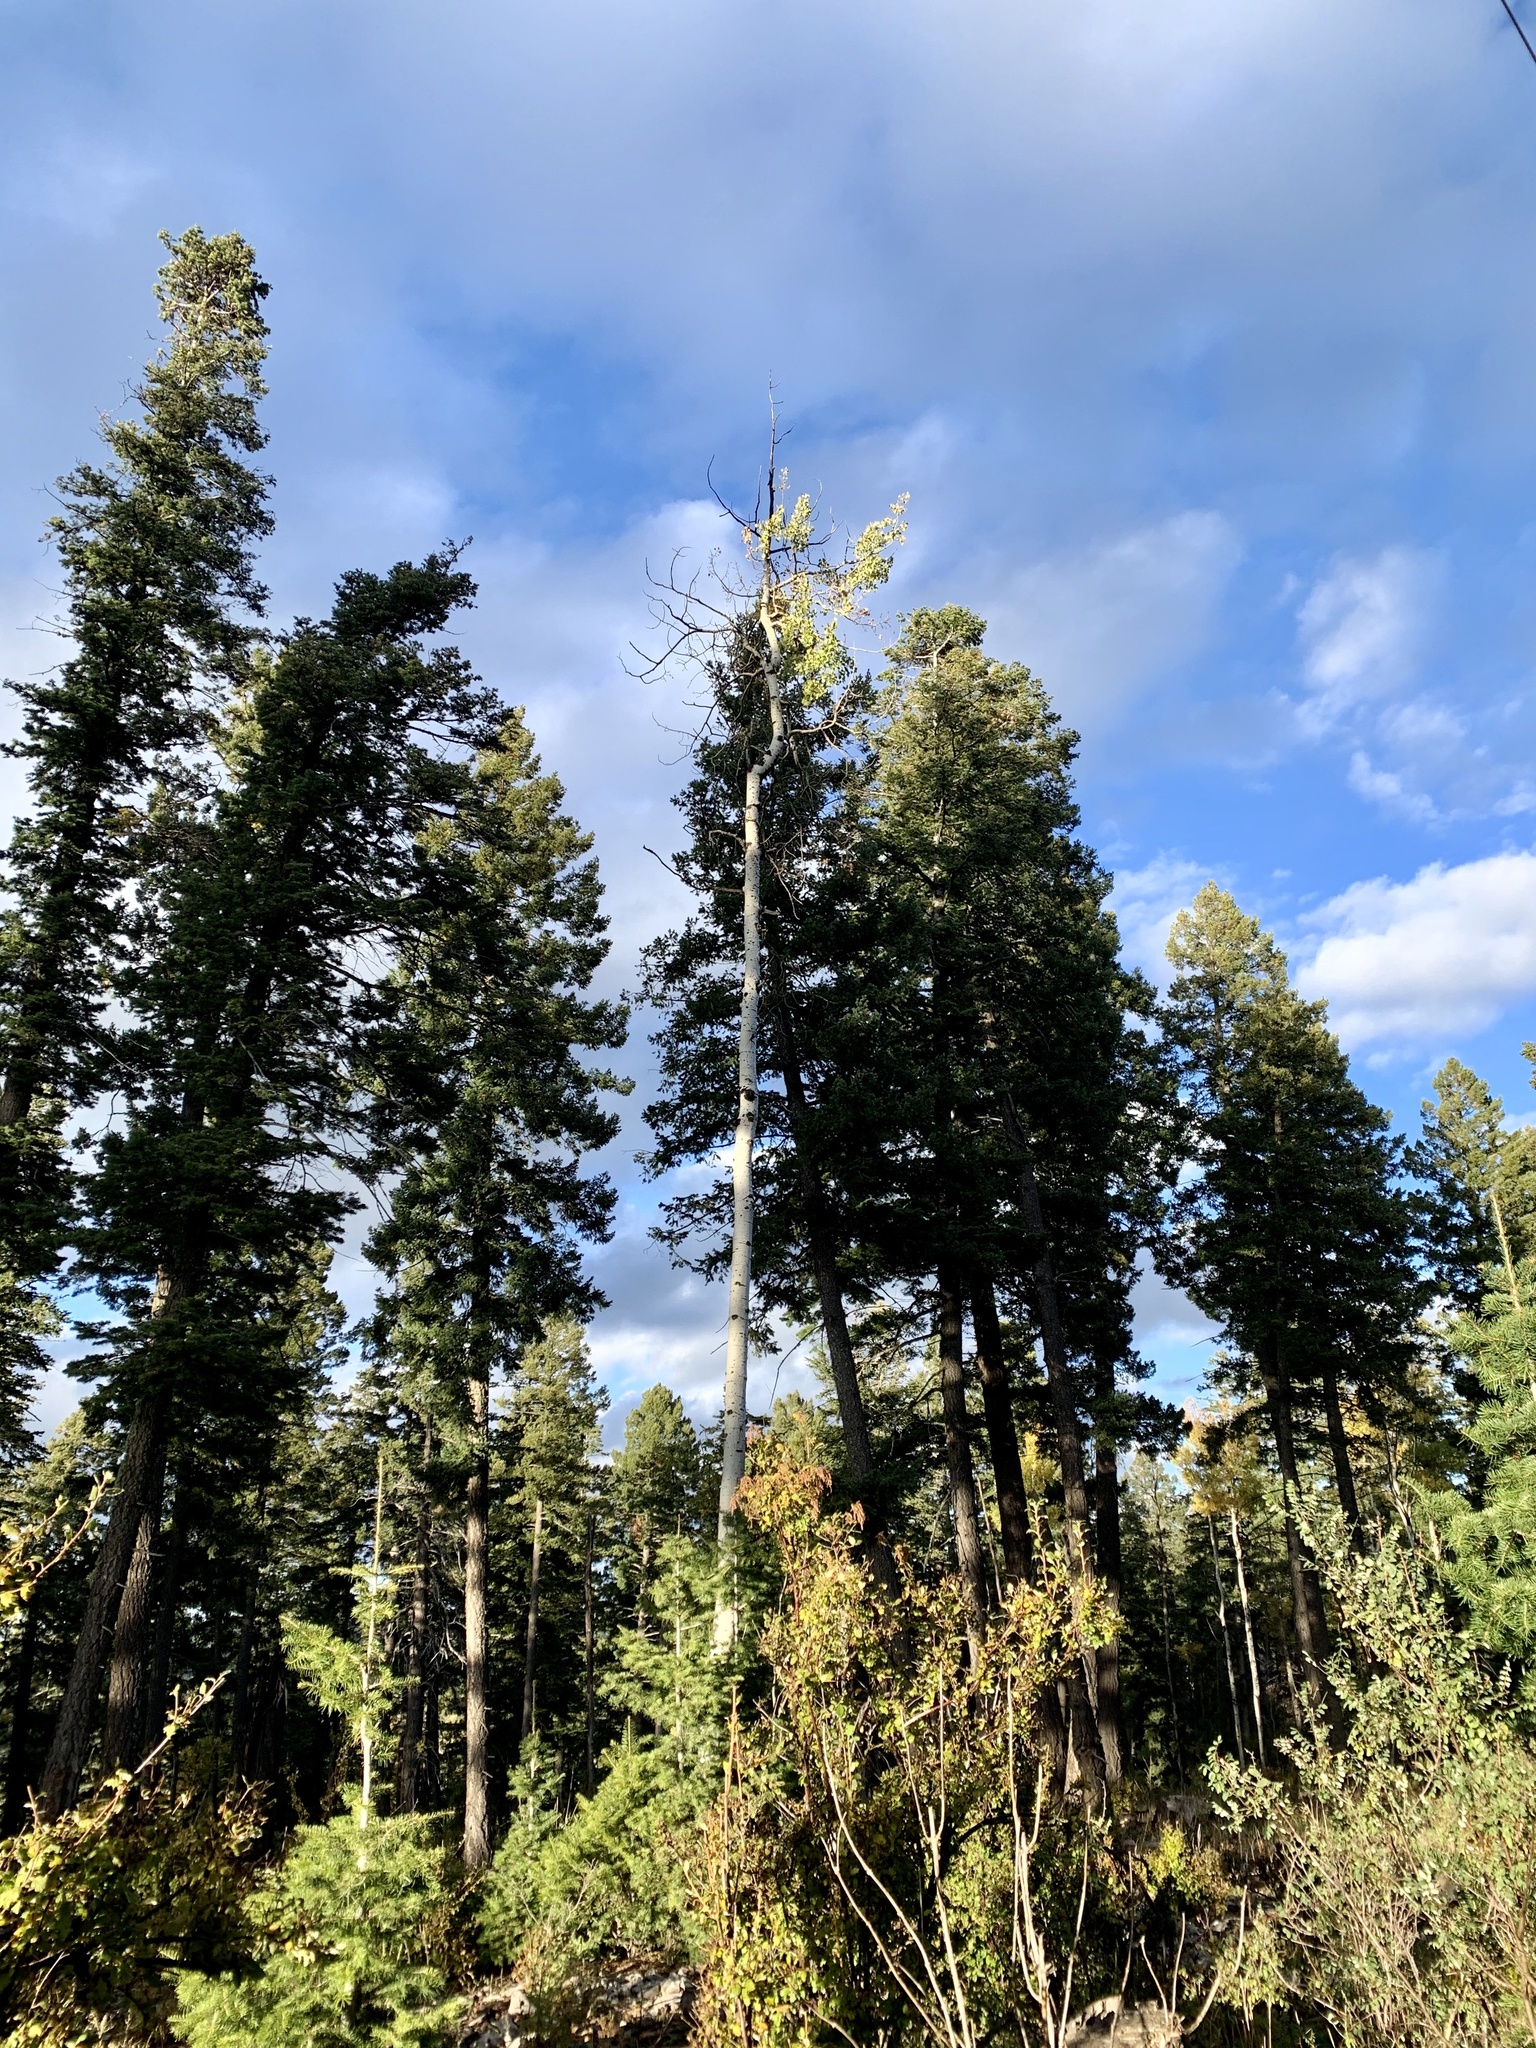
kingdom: Plantae
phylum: Tracheophyta
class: Magnoliopsida
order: Malpighiales
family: Salicaceae
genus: Populus
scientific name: Populus tremuloides
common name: Quaking aspen
